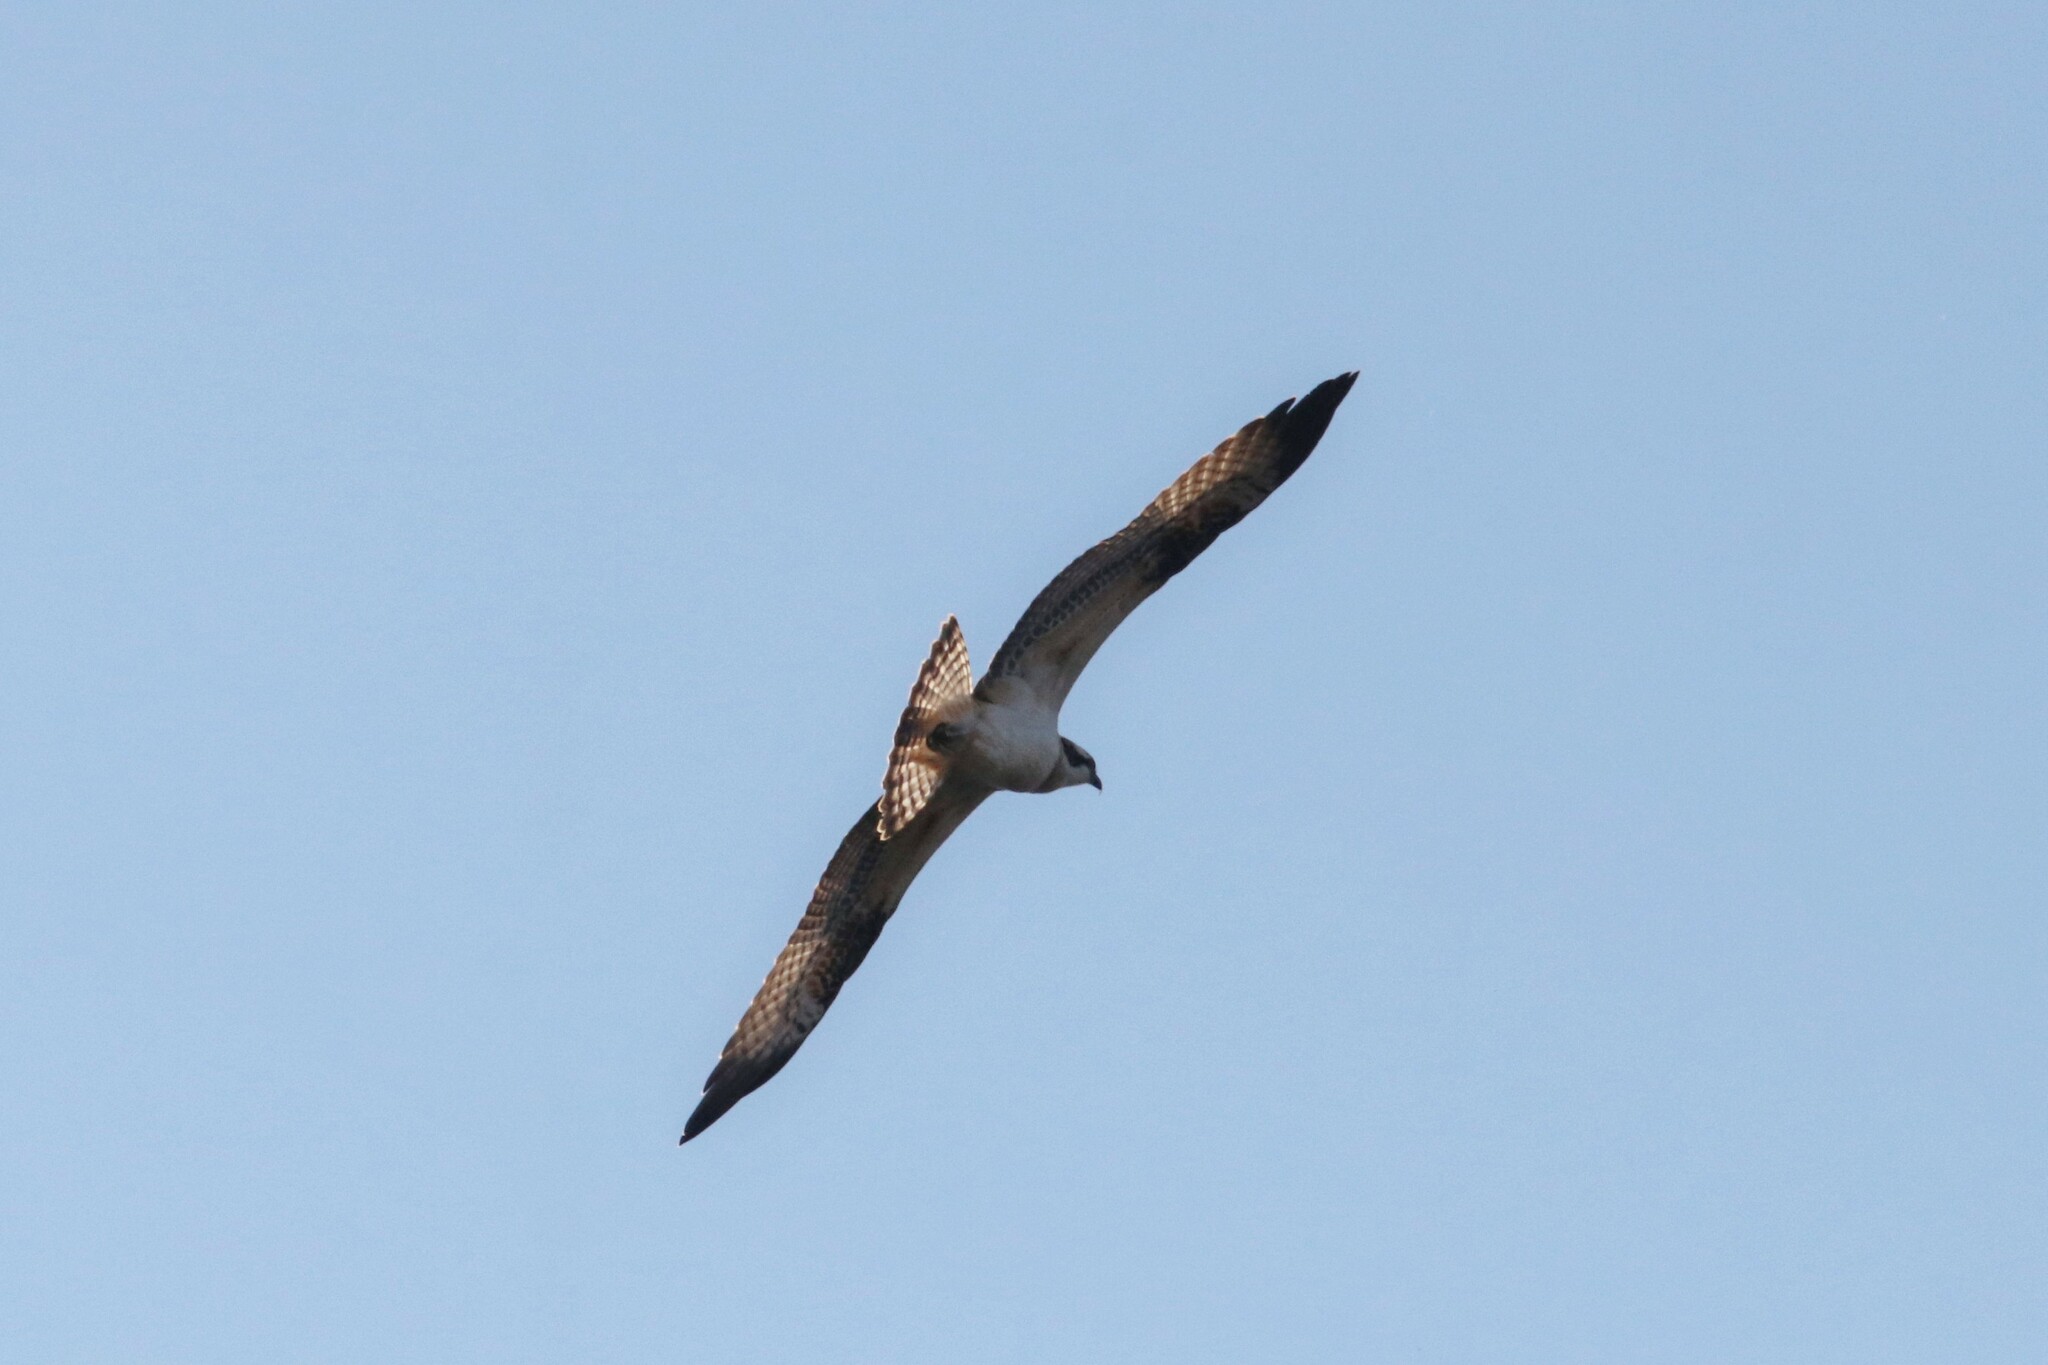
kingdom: Animalia
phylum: Chordata
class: Aves
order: Accipitriformes
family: Pandionidae
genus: Pandion
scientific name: Pandion haliaetus
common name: Osprey
